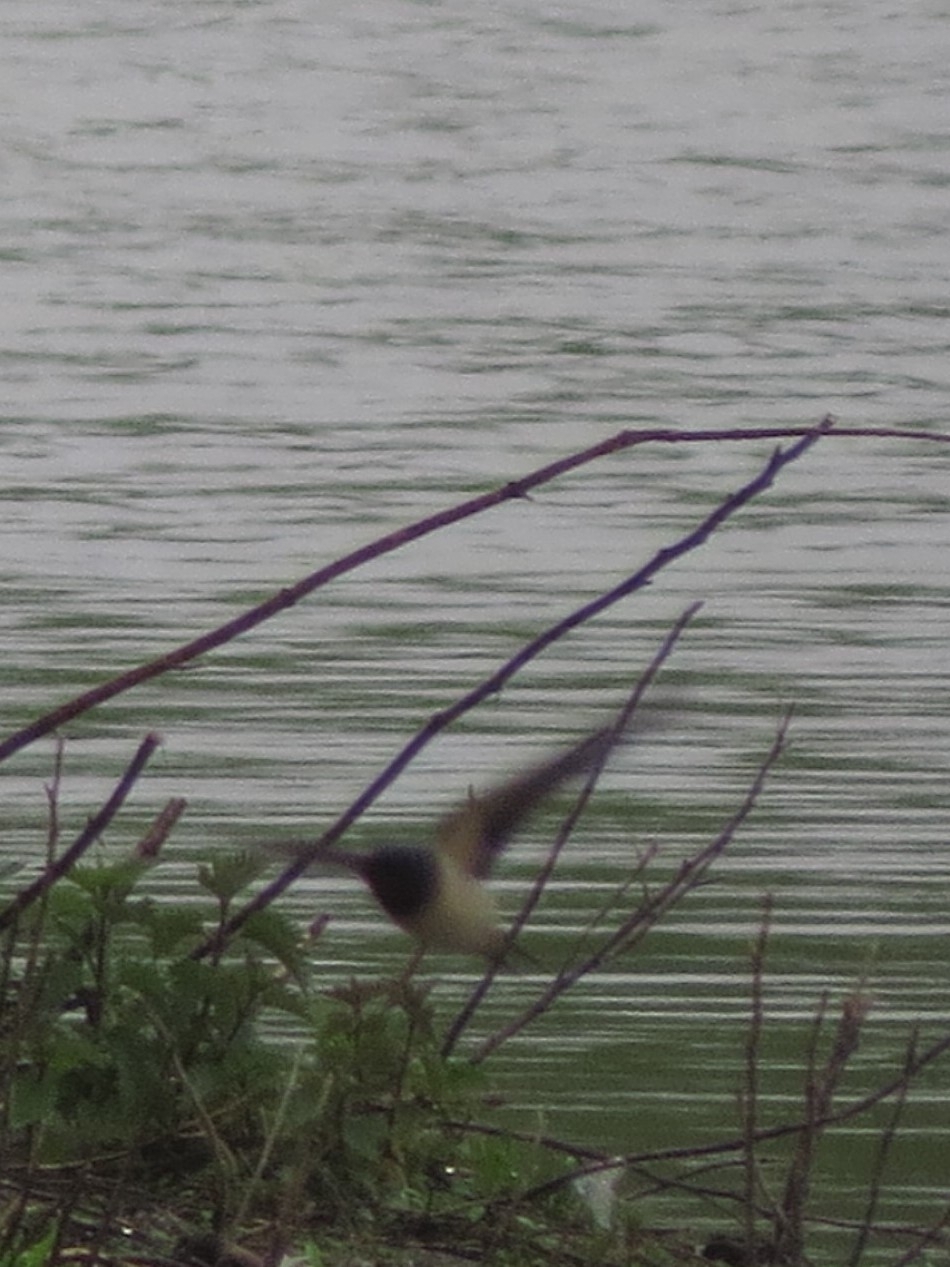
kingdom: Animalia
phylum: Chordata
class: Aves
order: Passeriformes
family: Hirundinidae
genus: Hirundo
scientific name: Hirundo rustica
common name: Barn swallow
